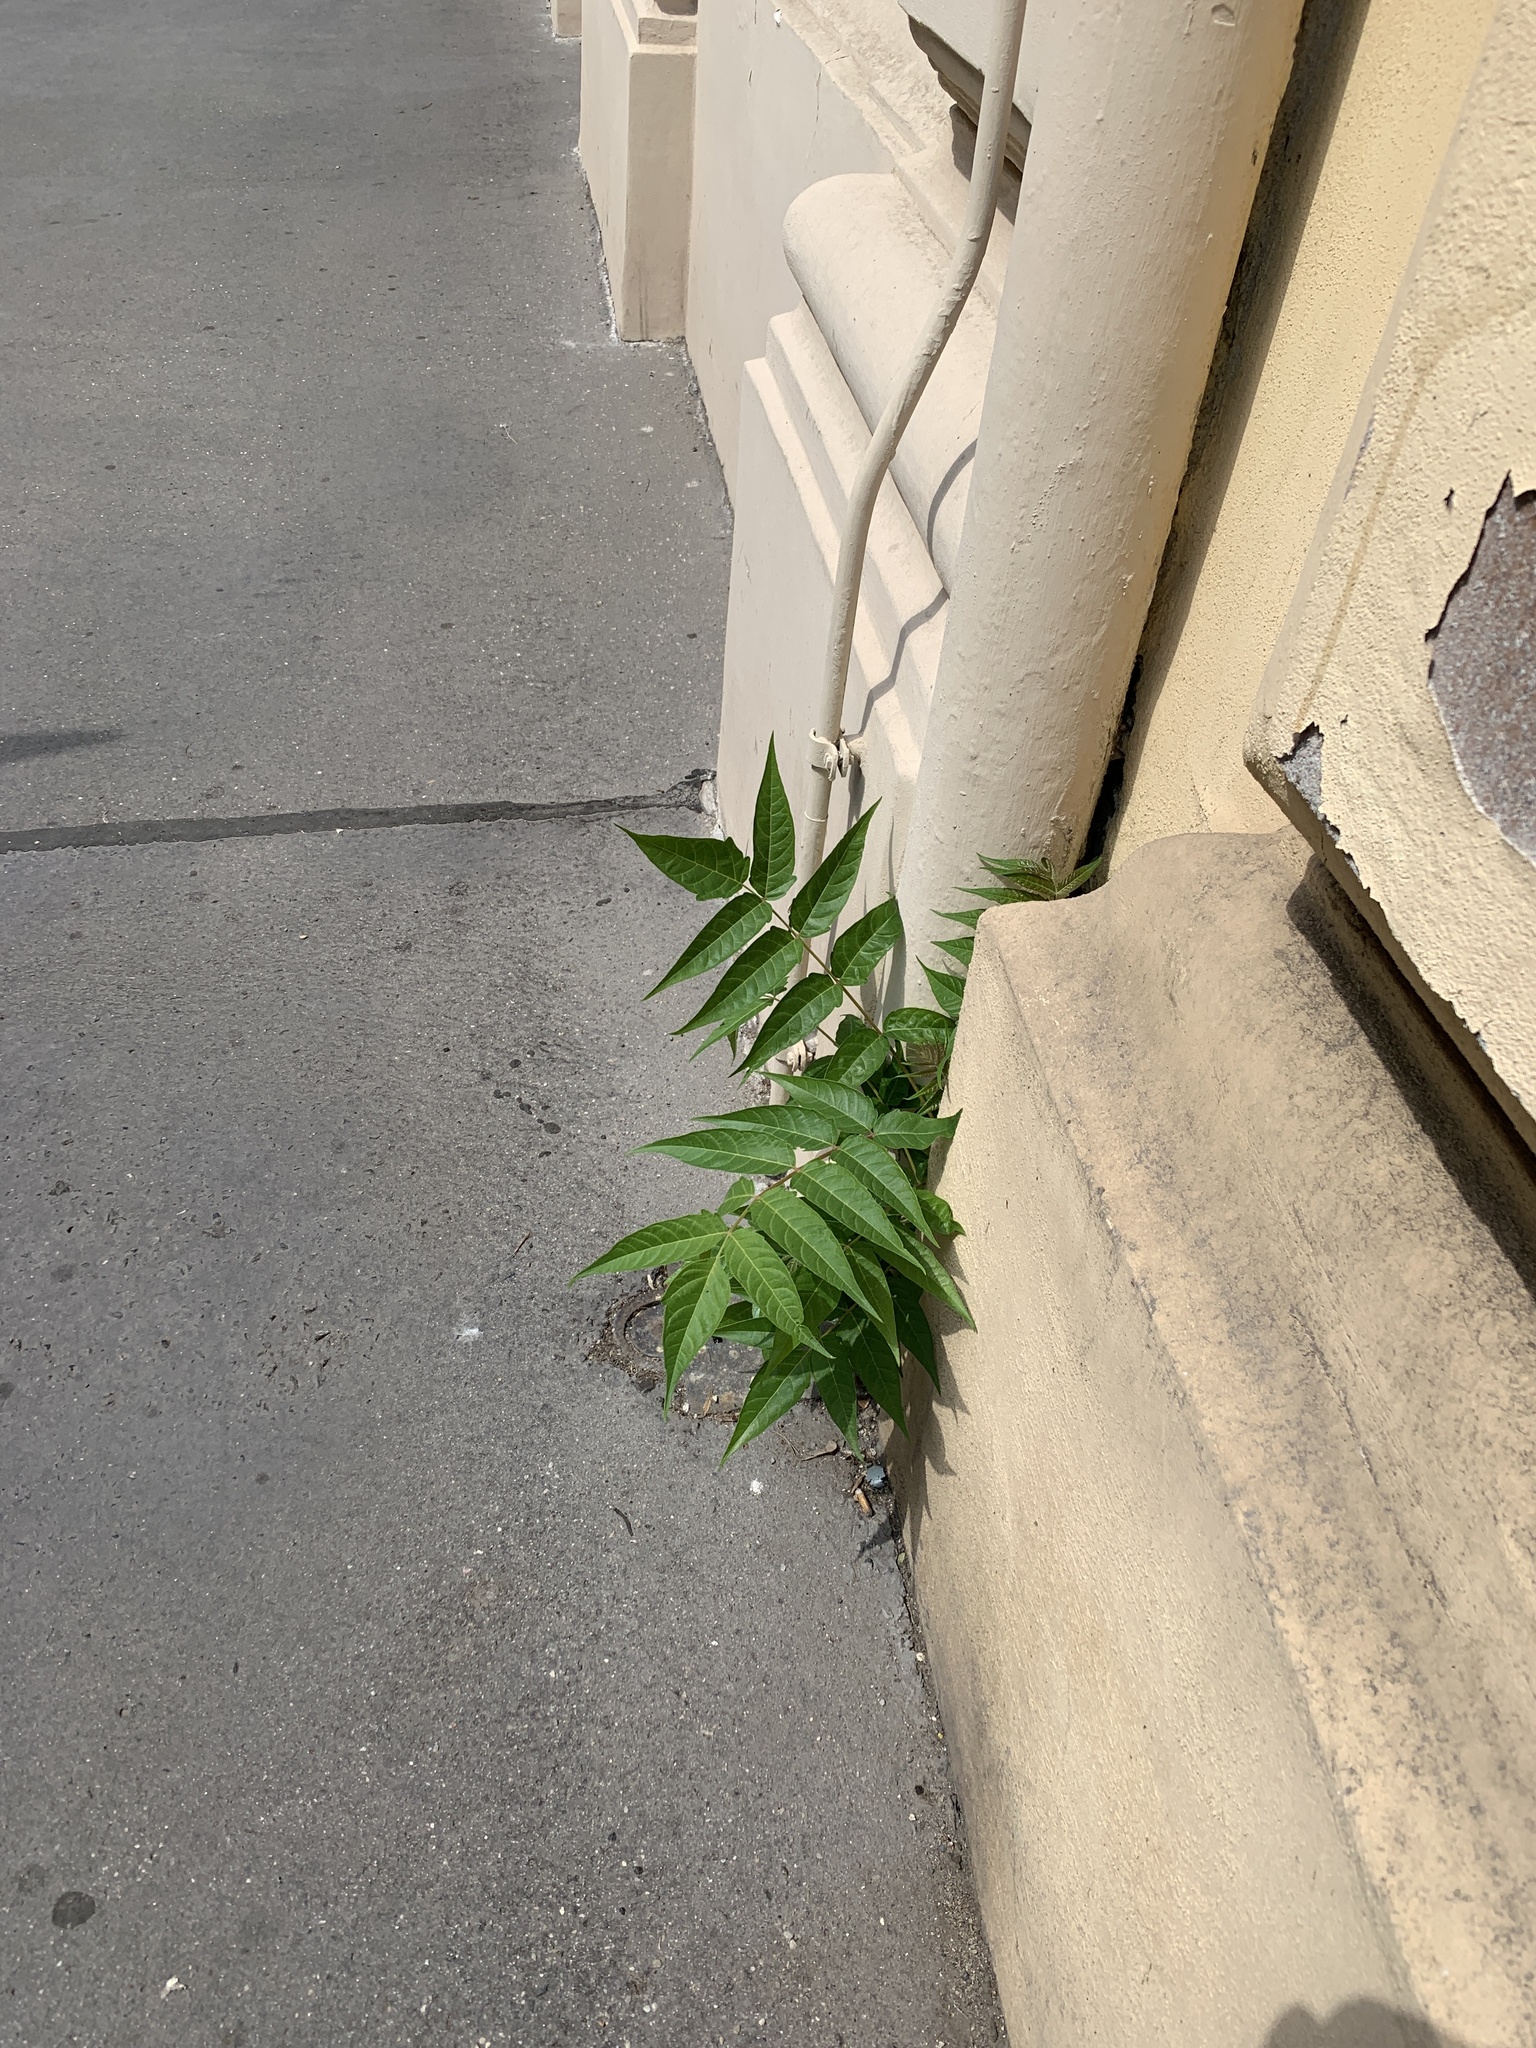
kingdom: Plantae
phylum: Tracheophyta
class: Magnoliopsida
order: Sapindales
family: Simaroubaceae
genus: Ailanthus
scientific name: Ailanthus altissima
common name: Tree-of-heaven
